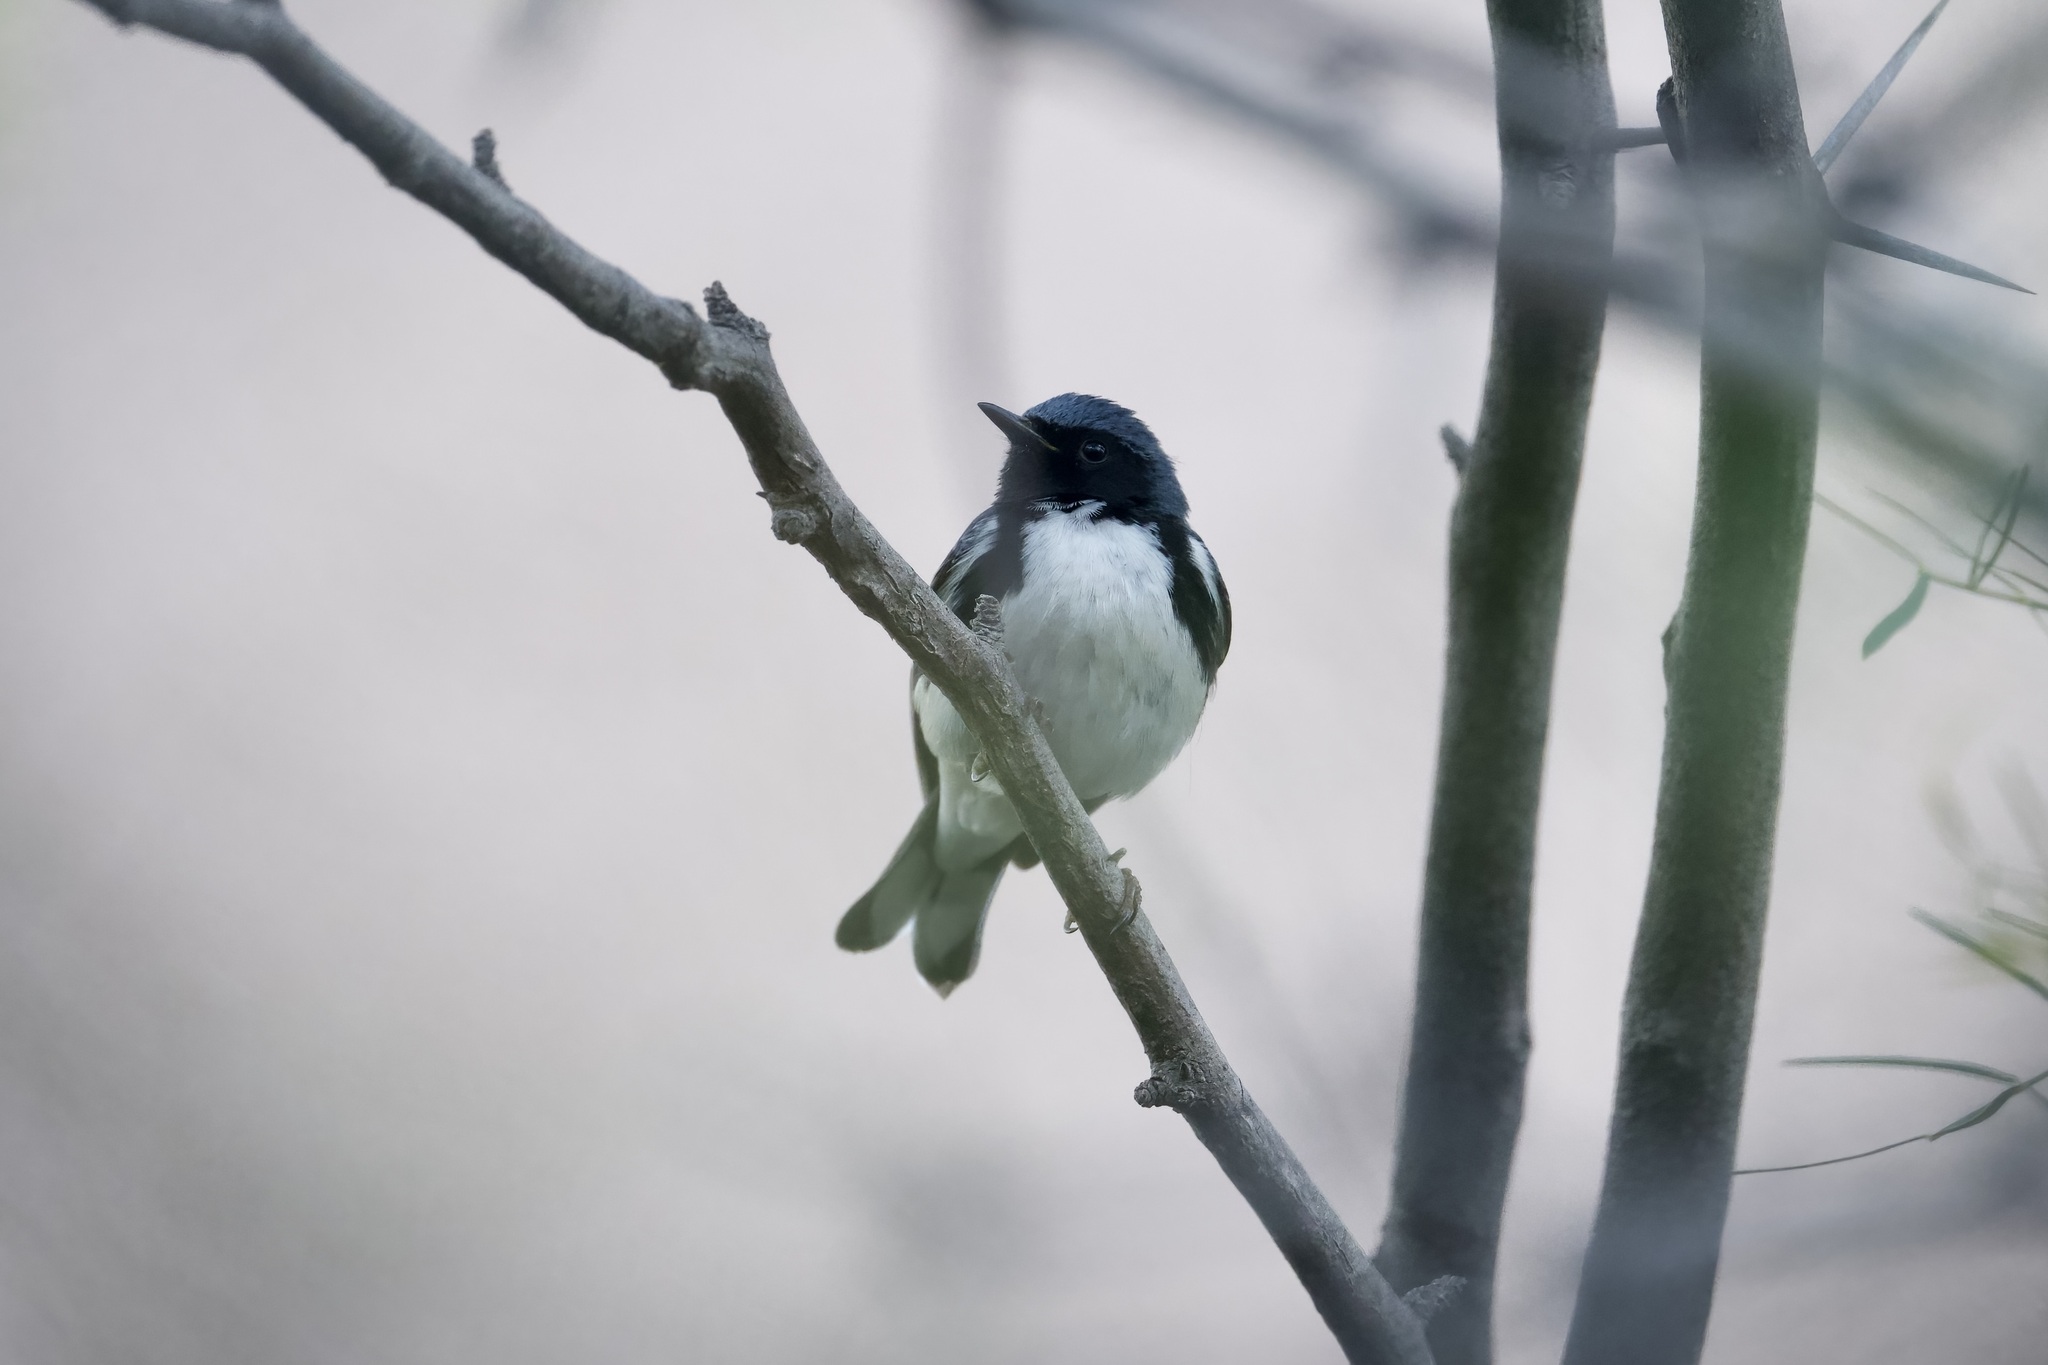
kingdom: Animalia
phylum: Chordata
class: Aves
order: Passeriformes
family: Parulidae
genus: Setophaga
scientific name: Setophaga caerulescens
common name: Black-throated blue warbler
